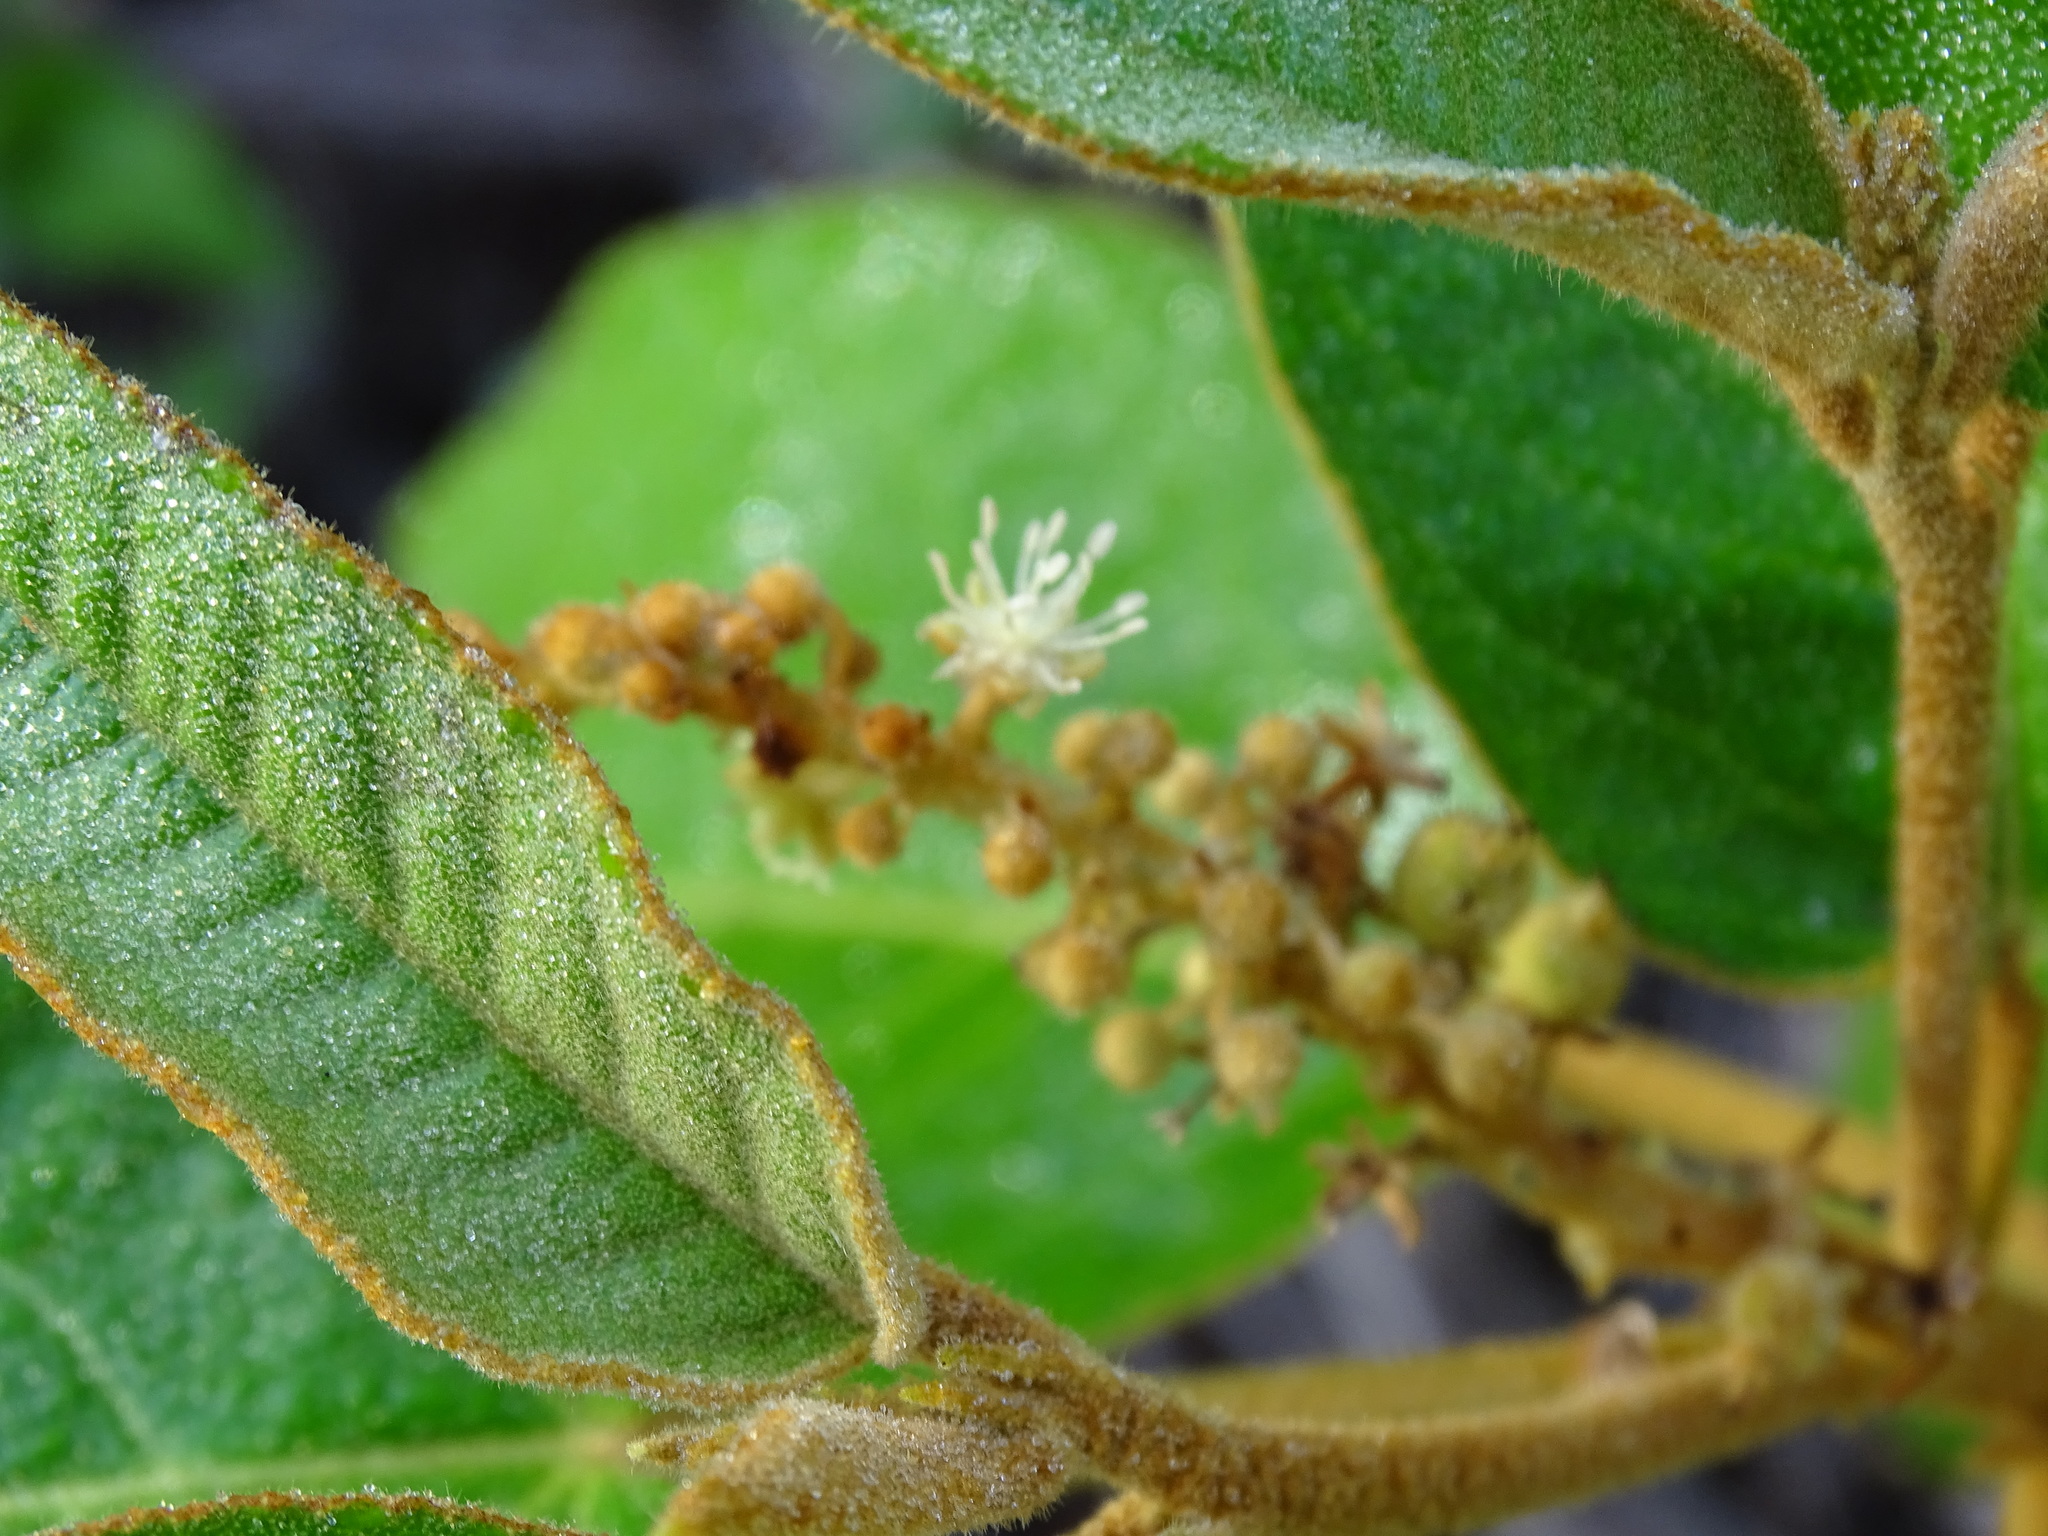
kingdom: Plantae
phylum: Tracheophyta
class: Magnoliopsida
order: Malpighiales
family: Euphorbiaceae
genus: Croton
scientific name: Croton peraeruginosus
